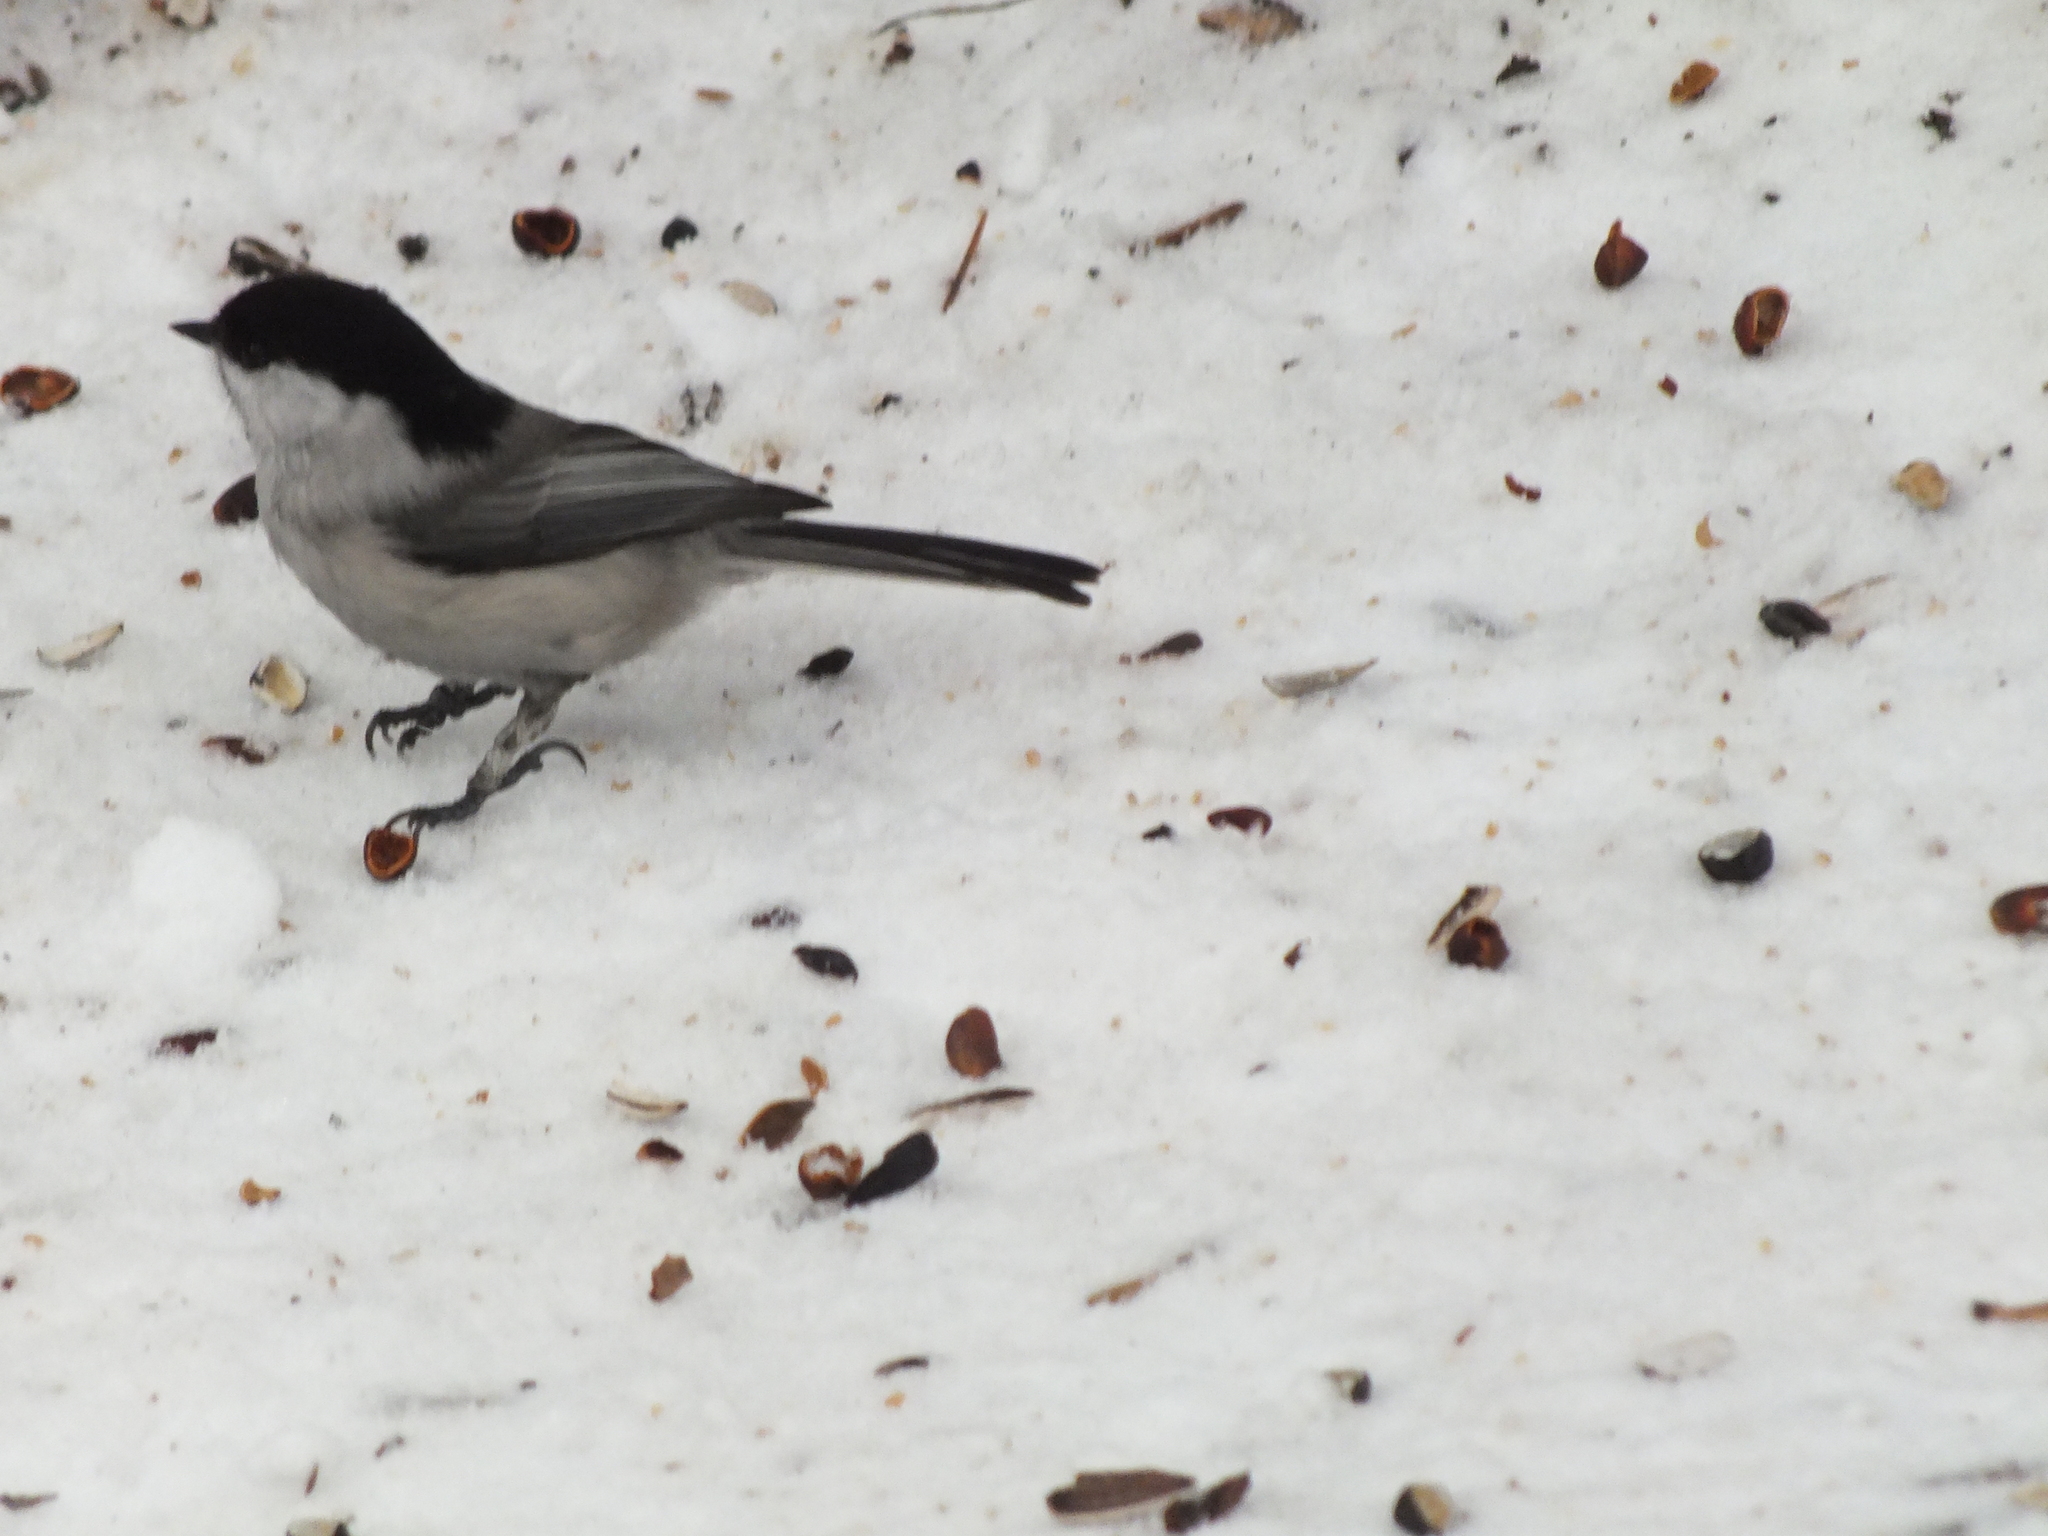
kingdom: Animalia
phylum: Chordata
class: Aves
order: Passeriformes
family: Paridae
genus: Poecile
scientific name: Poecile montanus
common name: Willow tit
